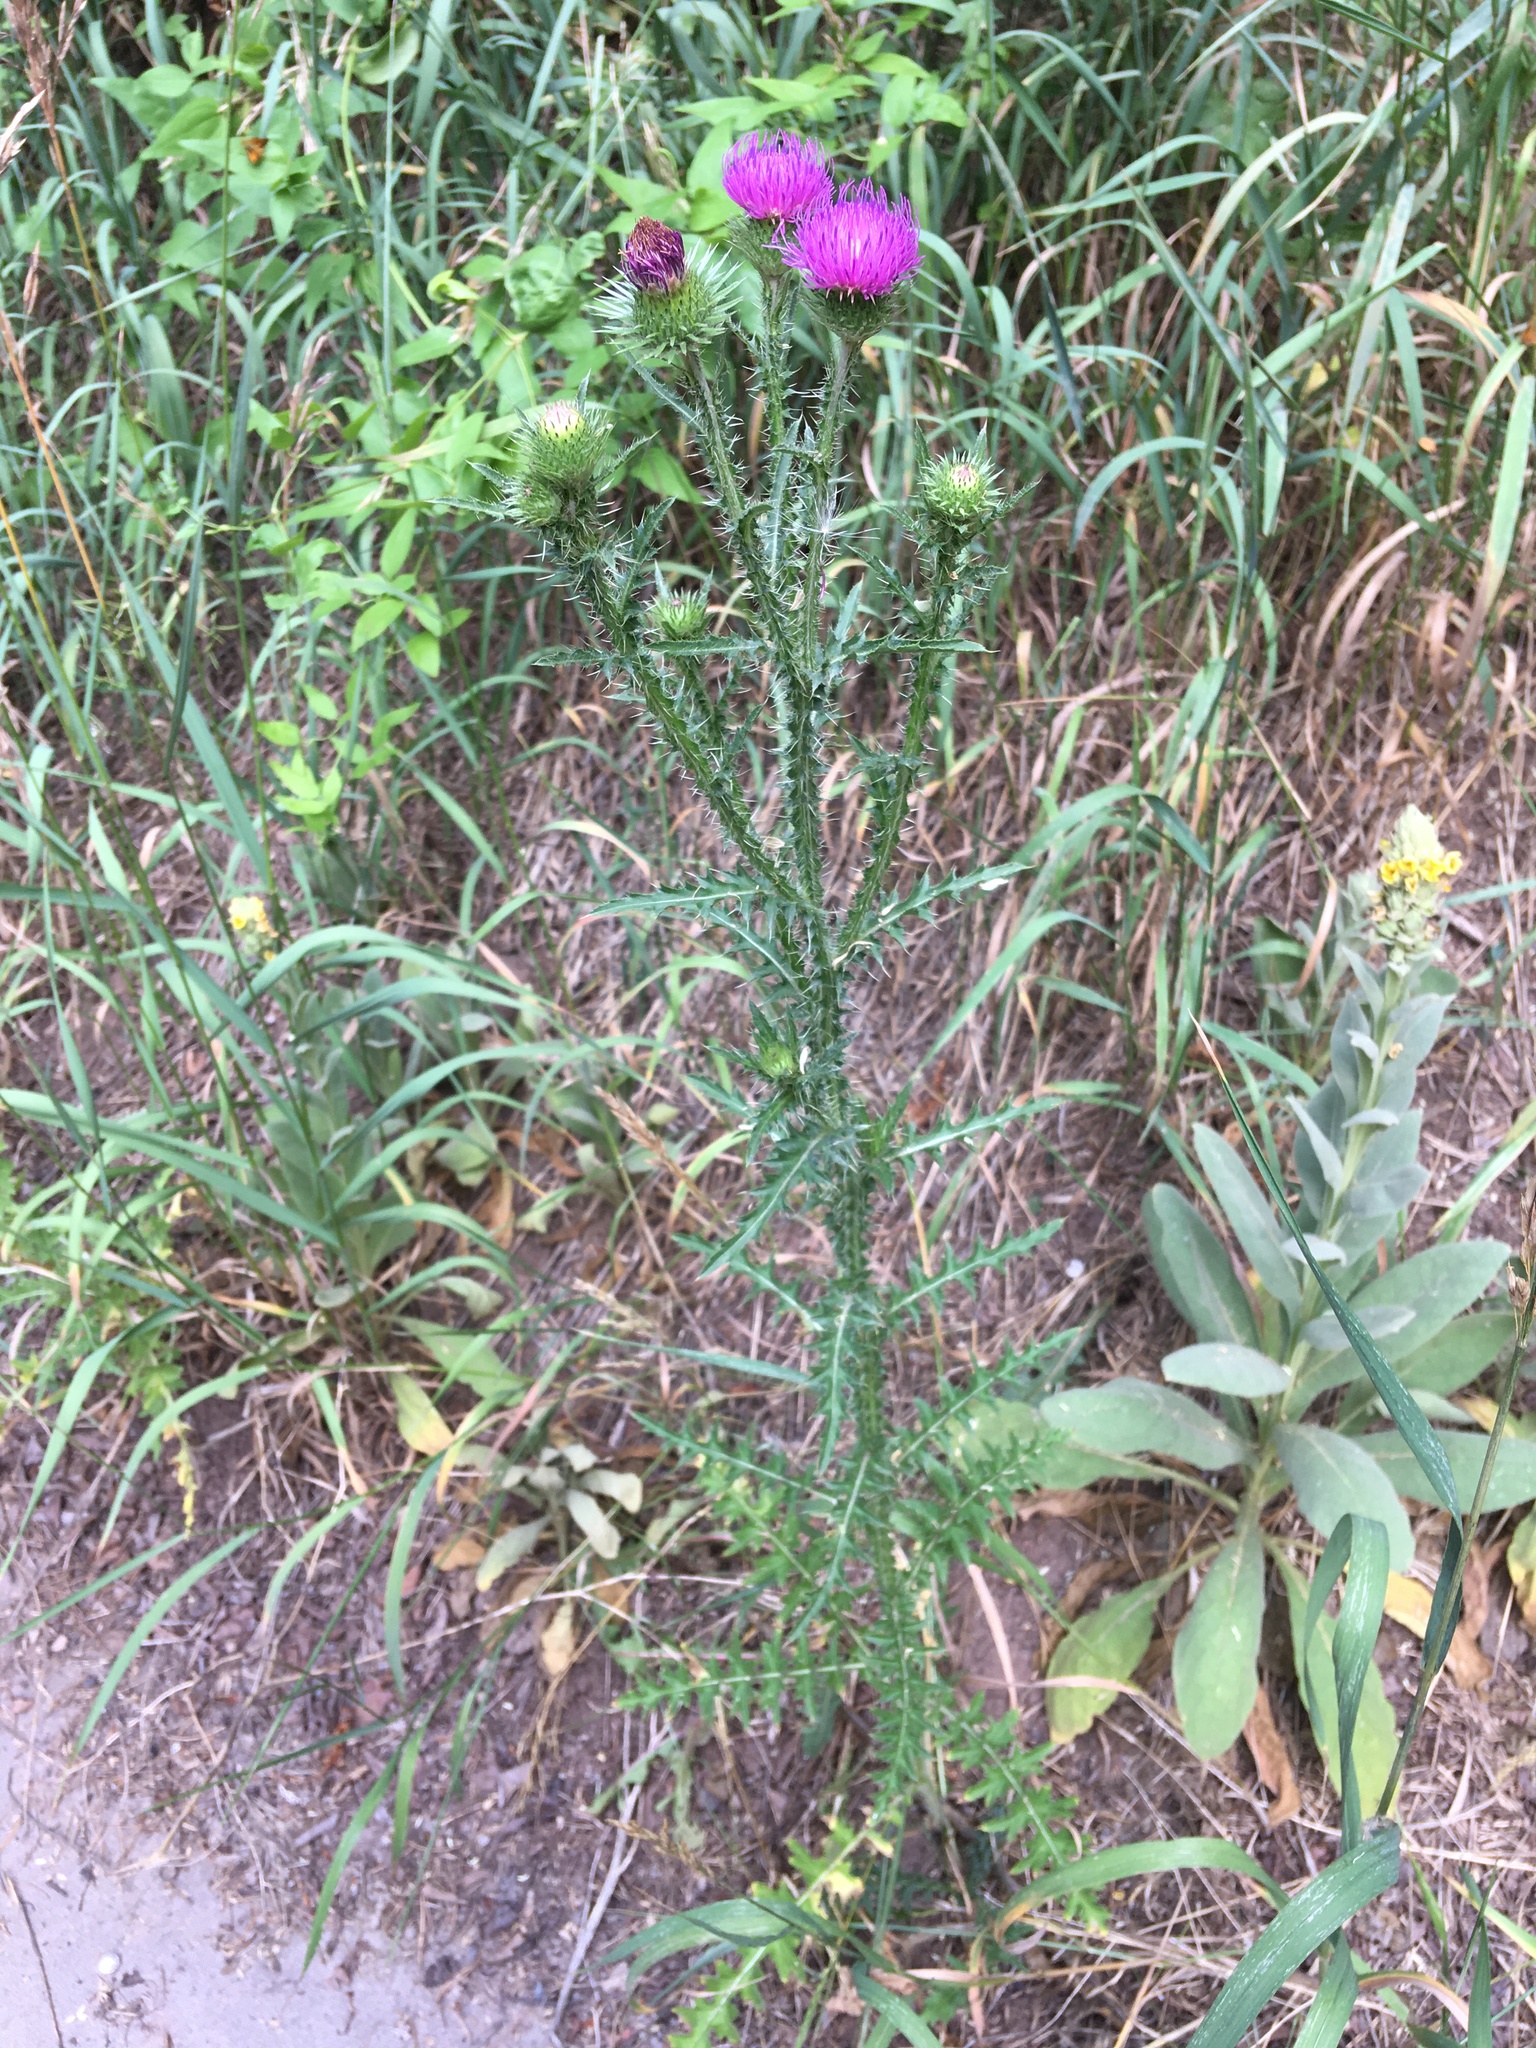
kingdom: Plantae
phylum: Tracheophyta
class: Magnoliopsida
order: Asterales
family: Asteraceae
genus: Carduus
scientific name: Carduus acanthoides
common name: Plumeless thistle
